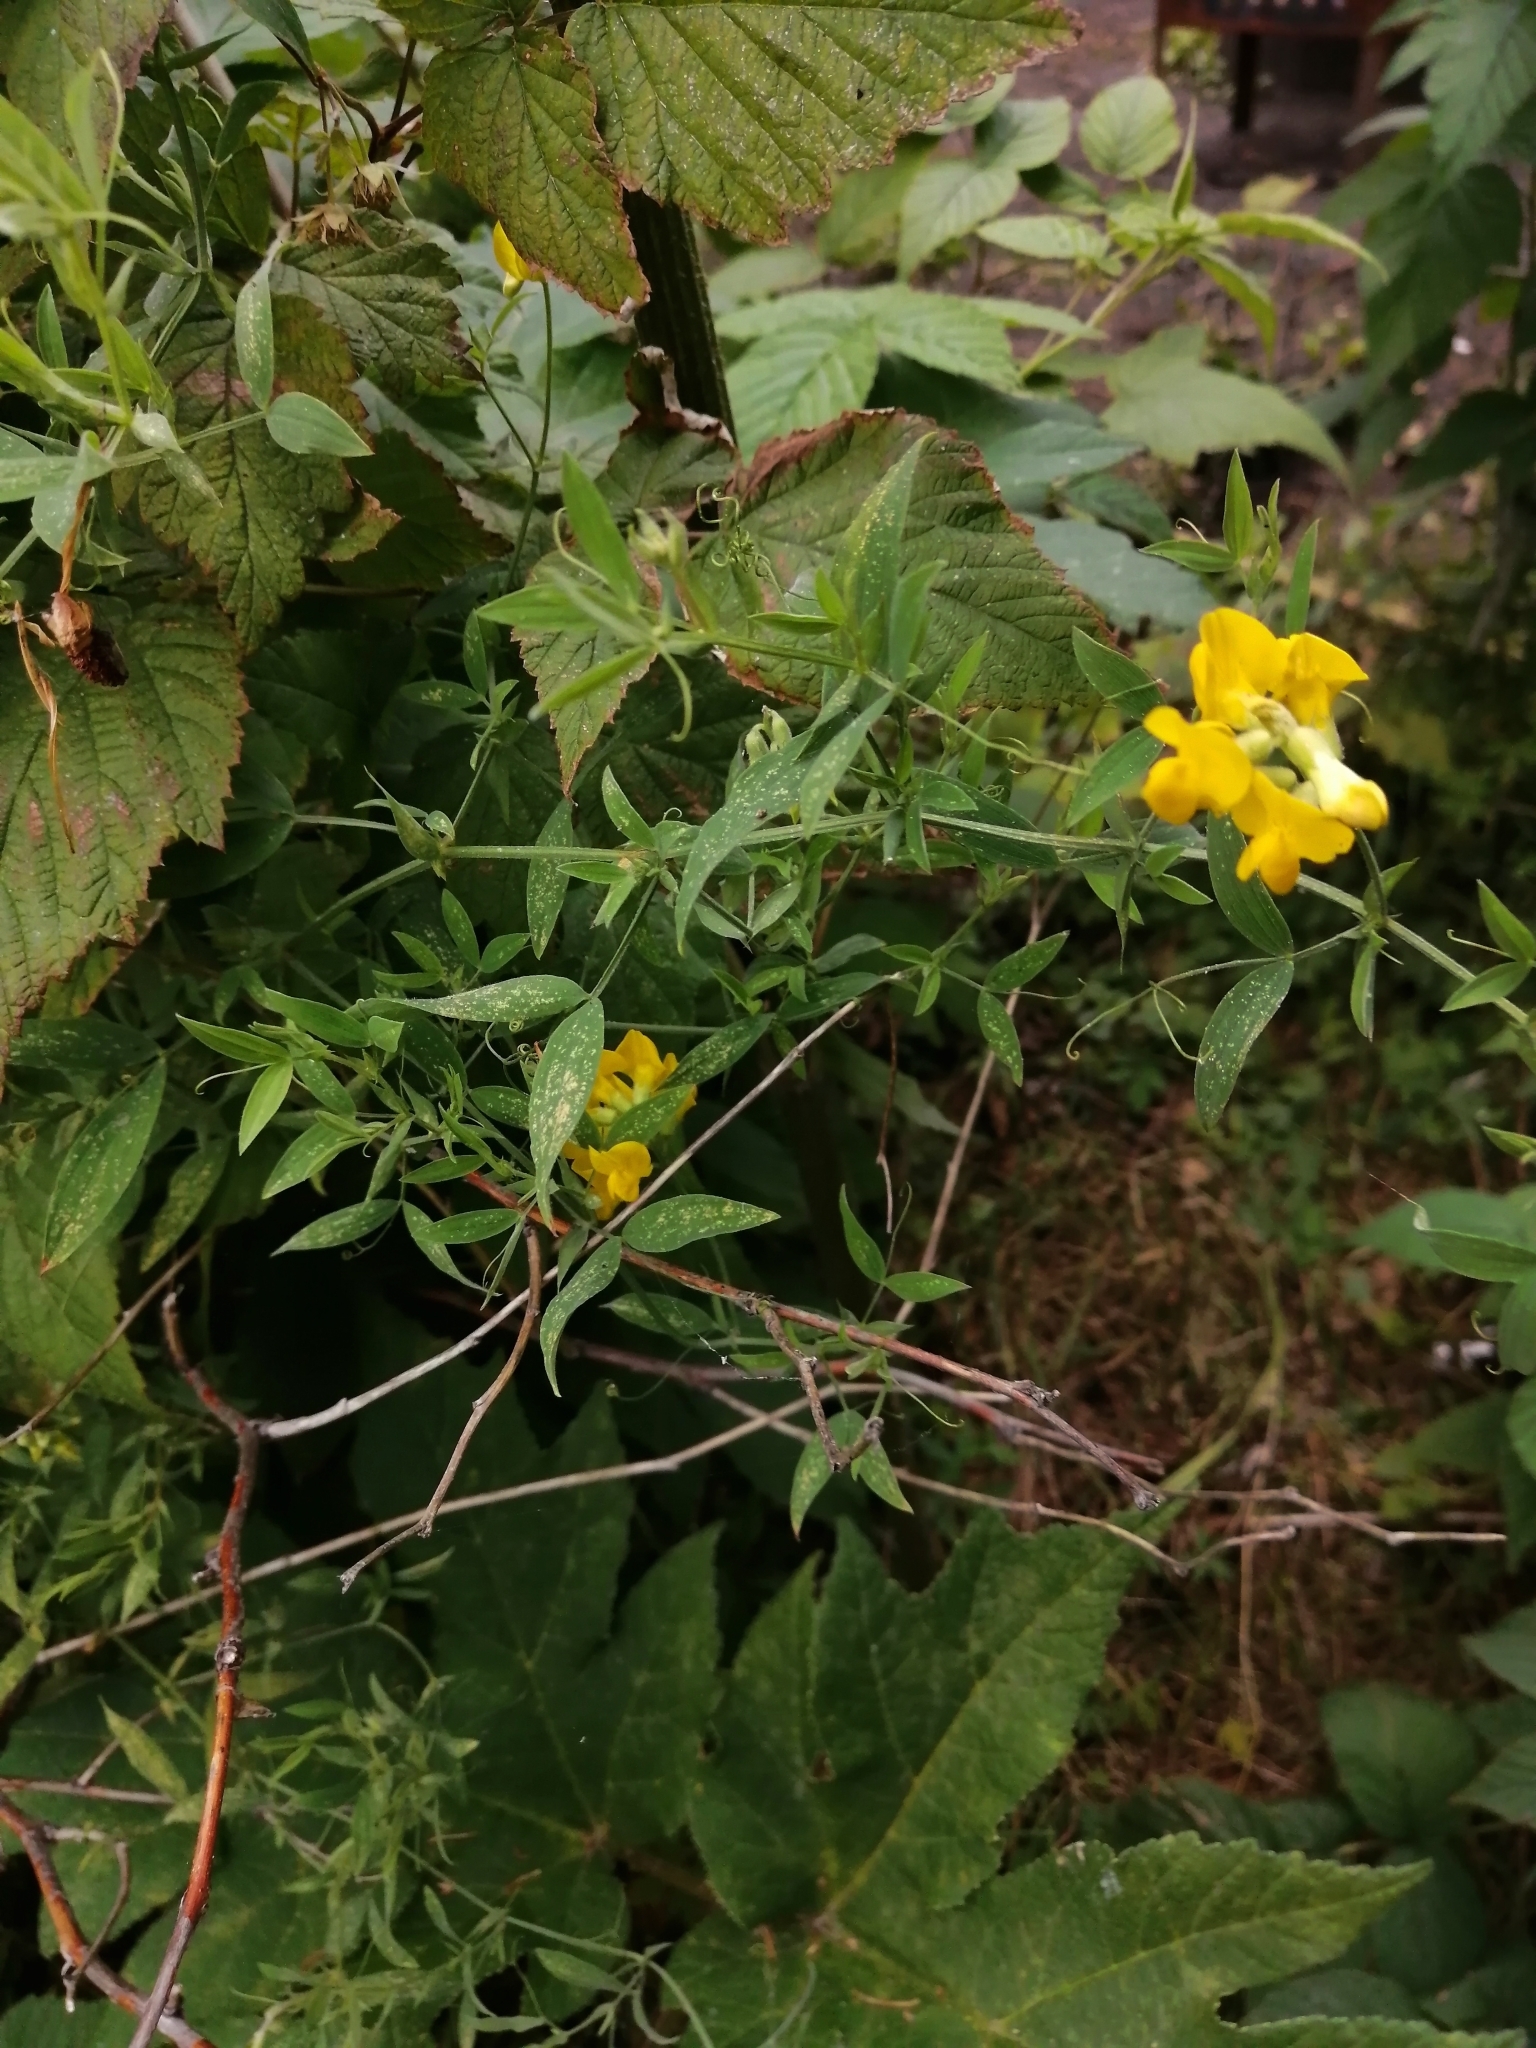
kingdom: Plantae
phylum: Tracheophyta
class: Magnoliopsida
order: Fabales
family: Fabaceae
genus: Lathyrus
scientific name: Lathyrus pratensis
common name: Meadow vetchling
